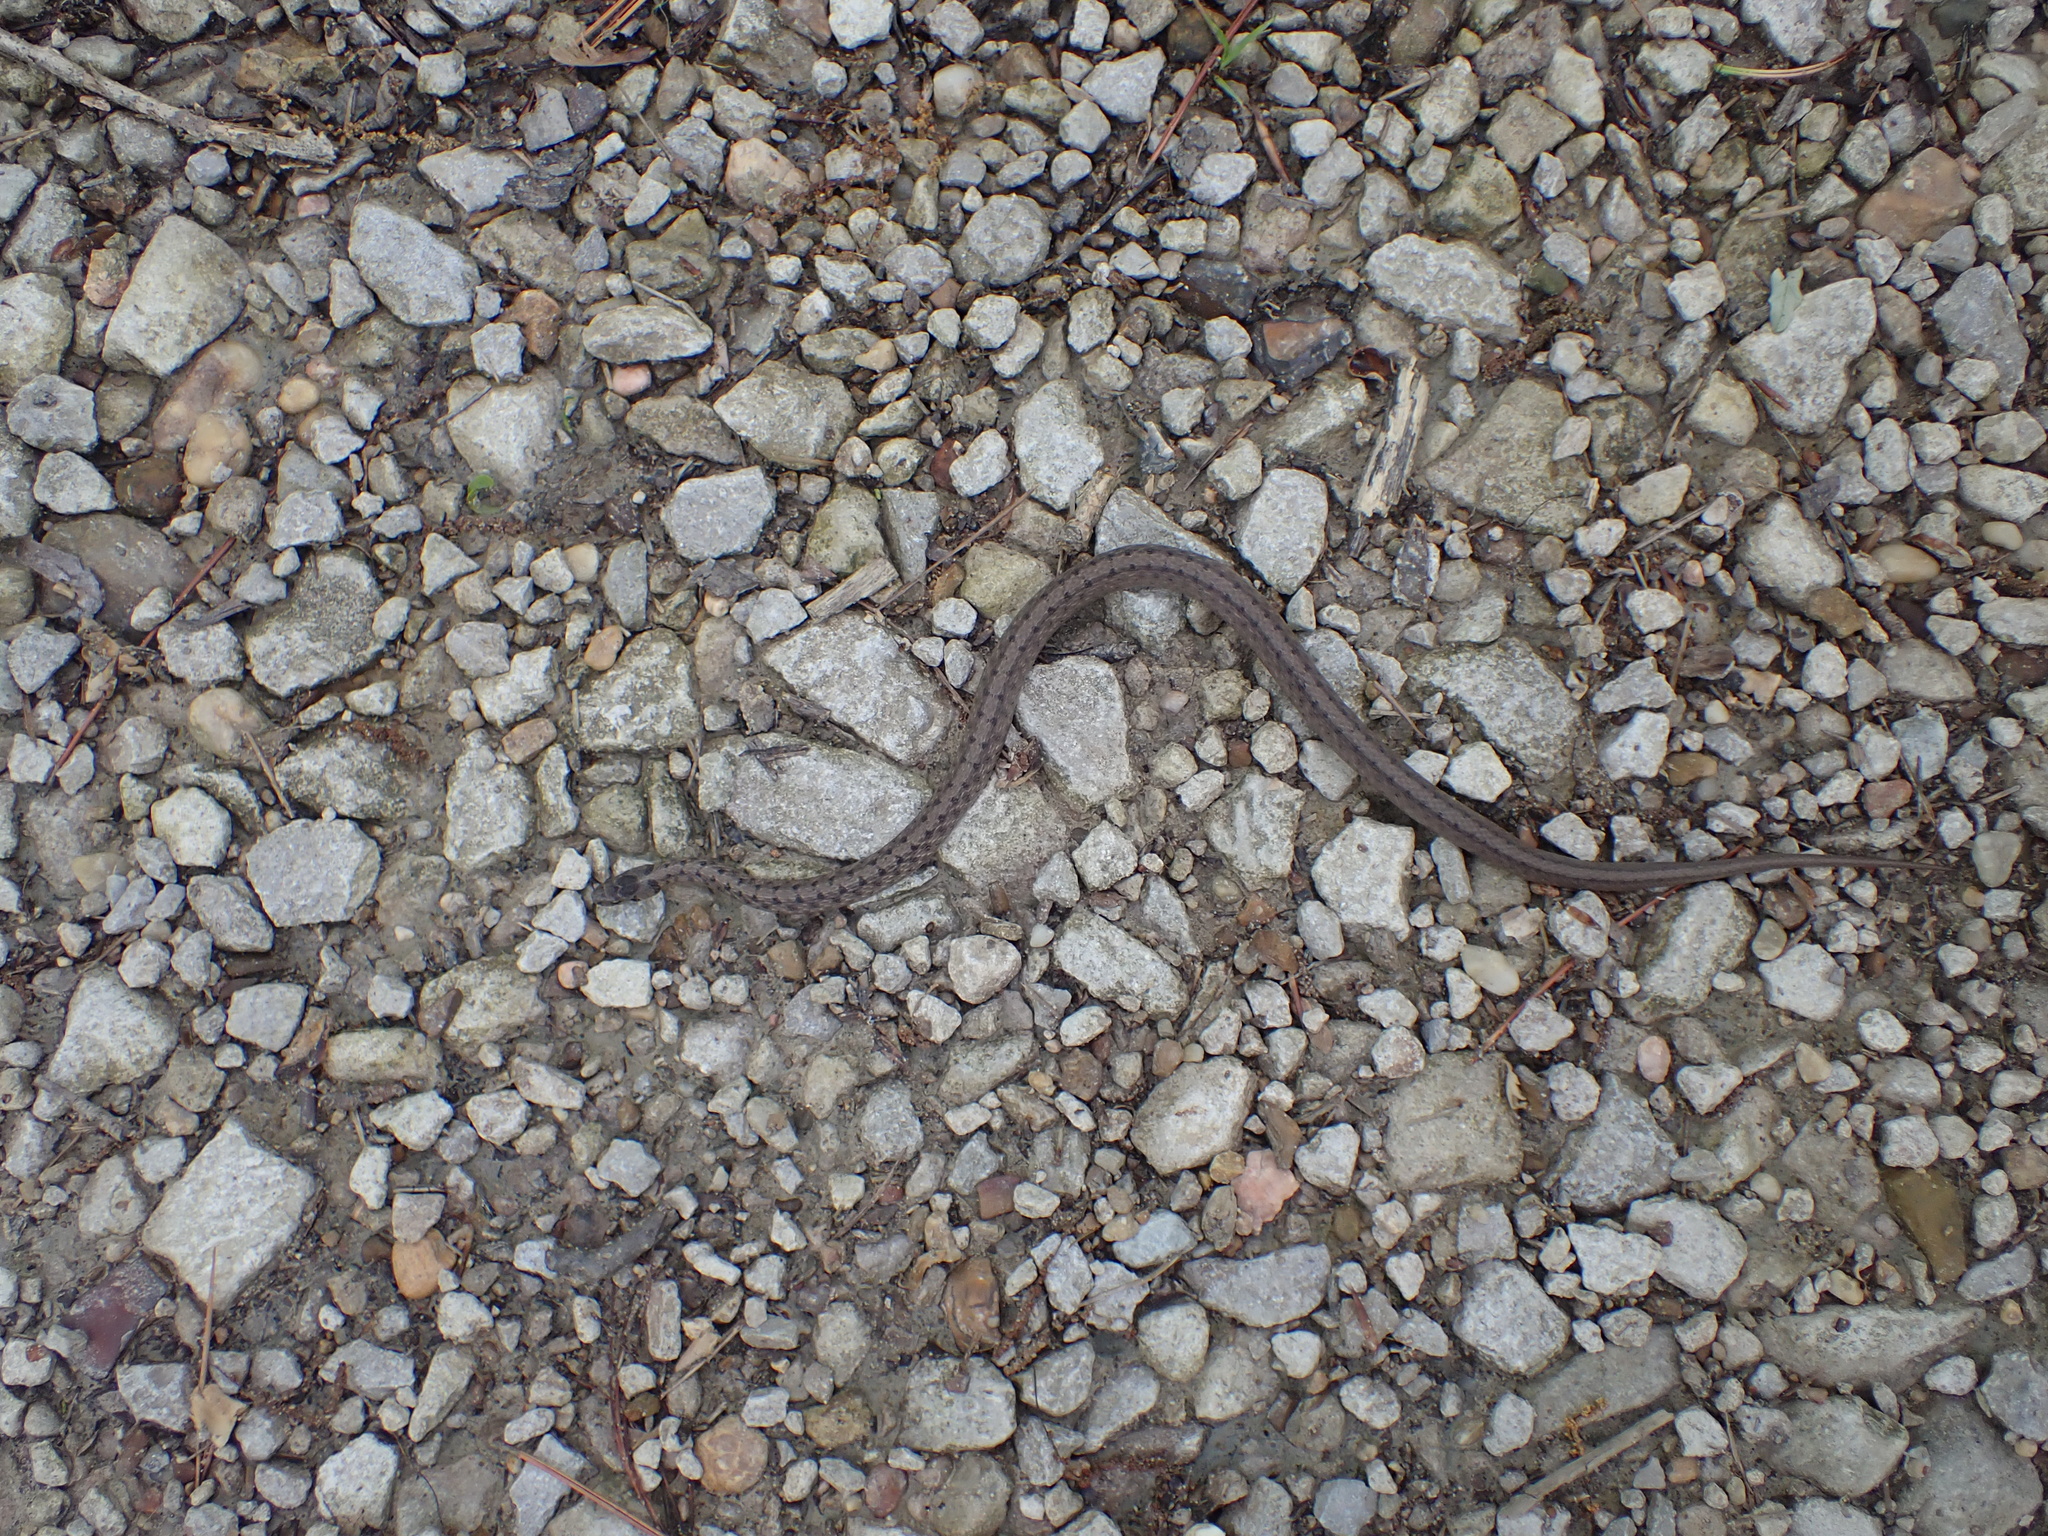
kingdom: Animalia
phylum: Chordata
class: Squamata
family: Colubridae
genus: Storeria
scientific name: Storeria dekayi
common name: (dekay’s) brown snake
